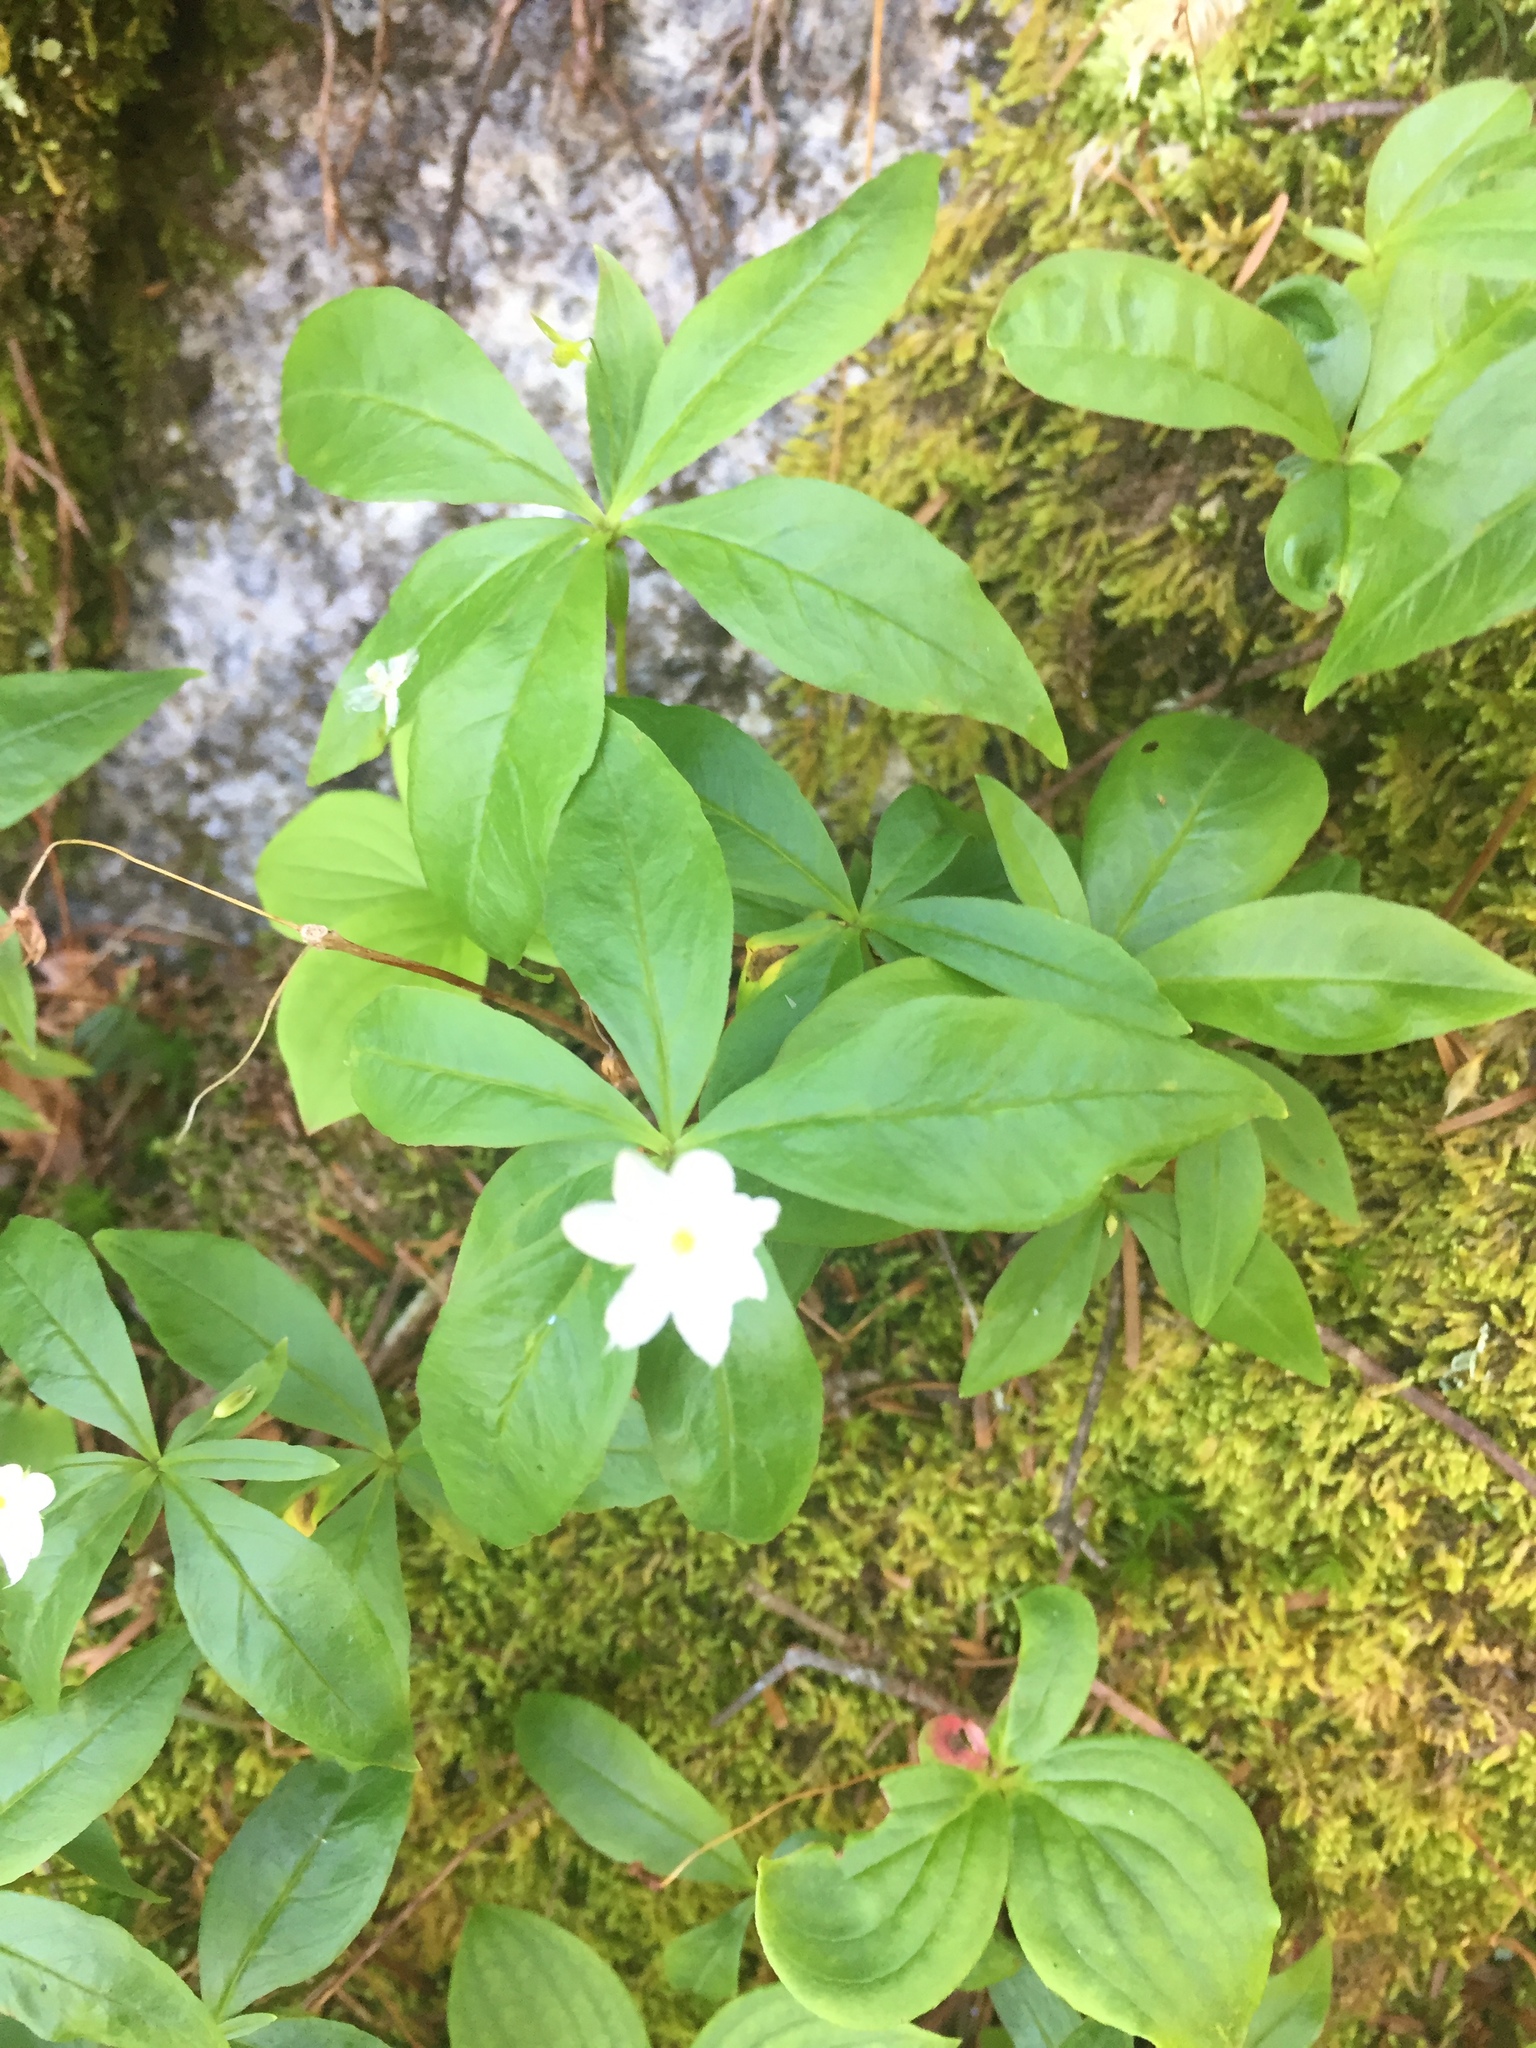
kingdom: Plantae
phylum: Tracheophyta
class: Magnoliopsida
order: Ericales
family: Primulaceae
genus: Lysimachia
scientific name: Lysimachia borealis
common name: American starflower
